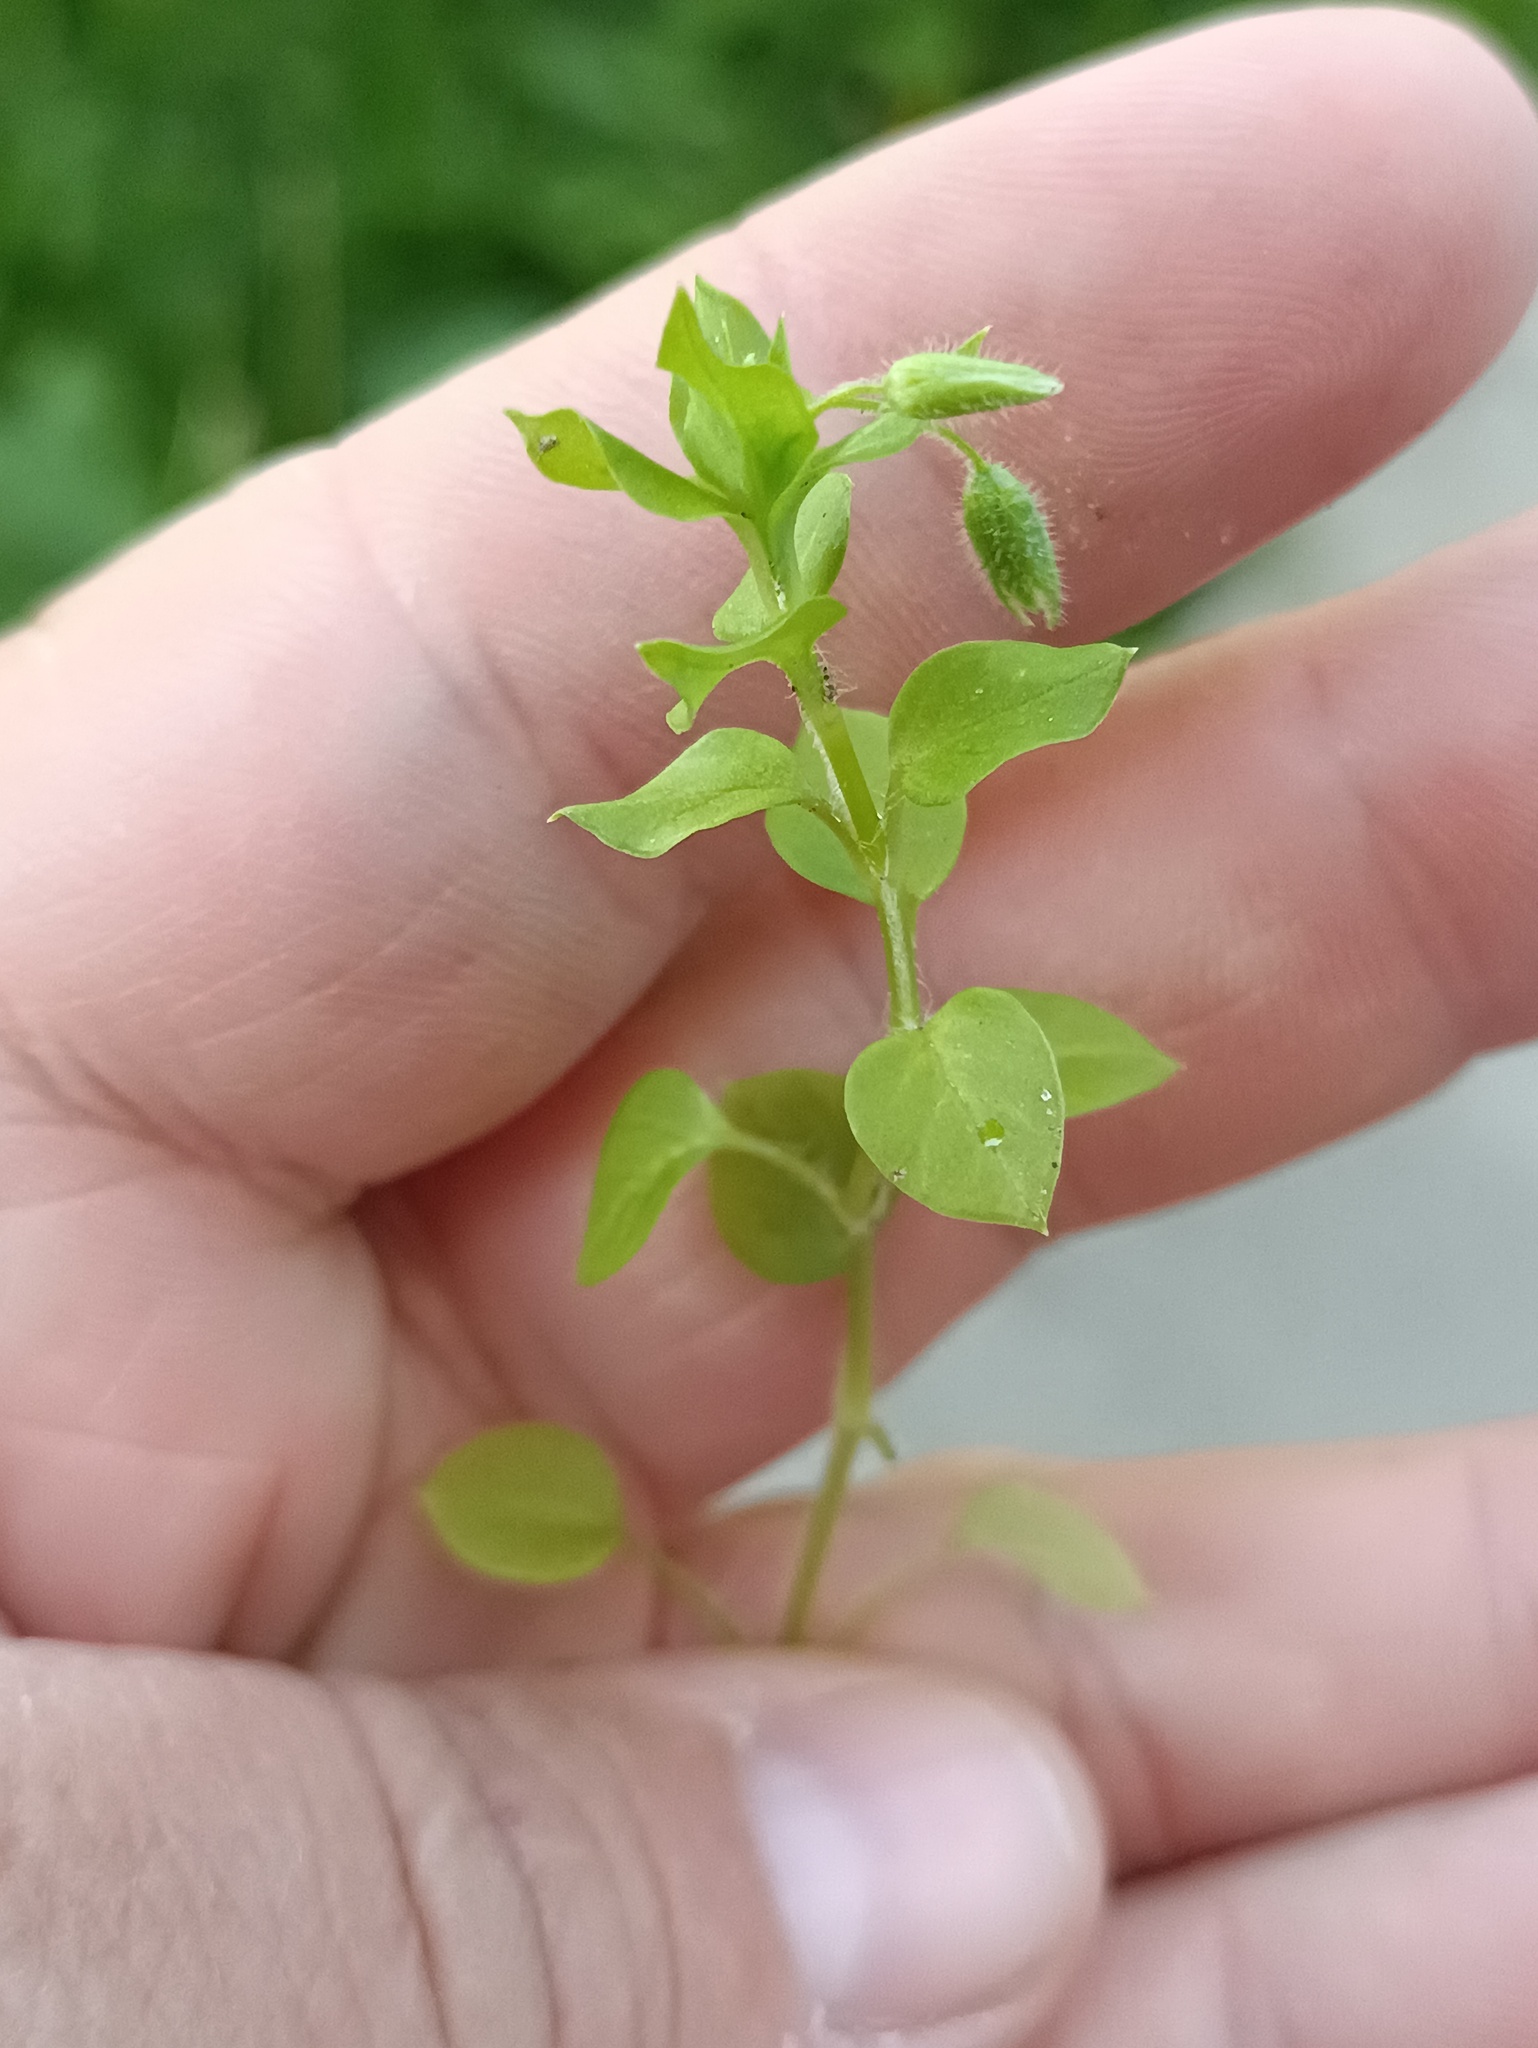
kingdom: Plantae
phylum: Tracheophyta
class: Magnoliopsida
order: Caryophyllales
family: Caryophyllaceae
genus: Stellaria
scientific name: Stellaria media
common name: Common chickweed
